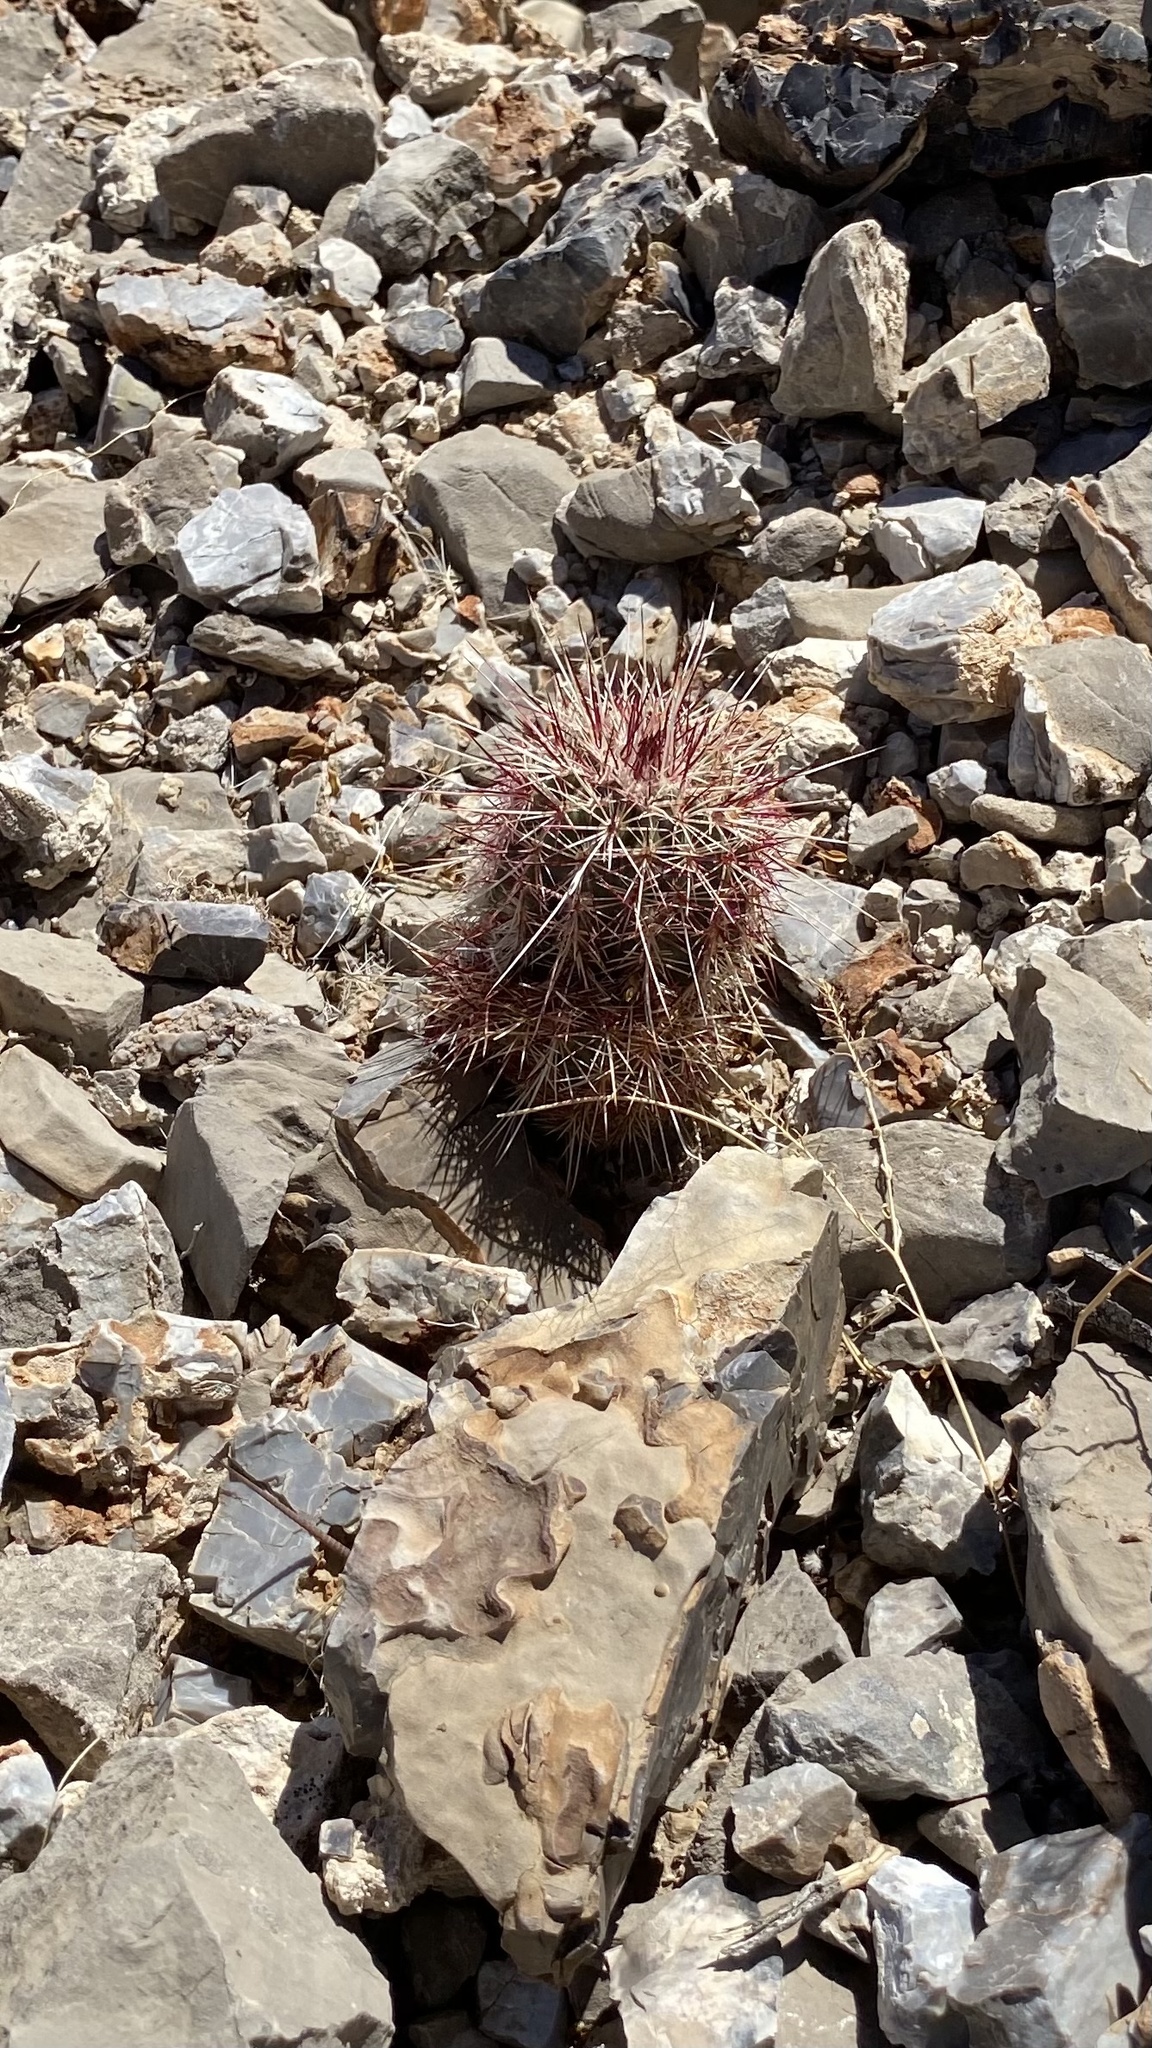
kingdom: Plantae
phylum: Tracheophyta
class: Magnoliopsida
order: Caryophyllales
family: Cactaceae
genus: Echinocereus
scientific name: Echinocereus viridiflorus
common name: Nylon hedgehog cactus
